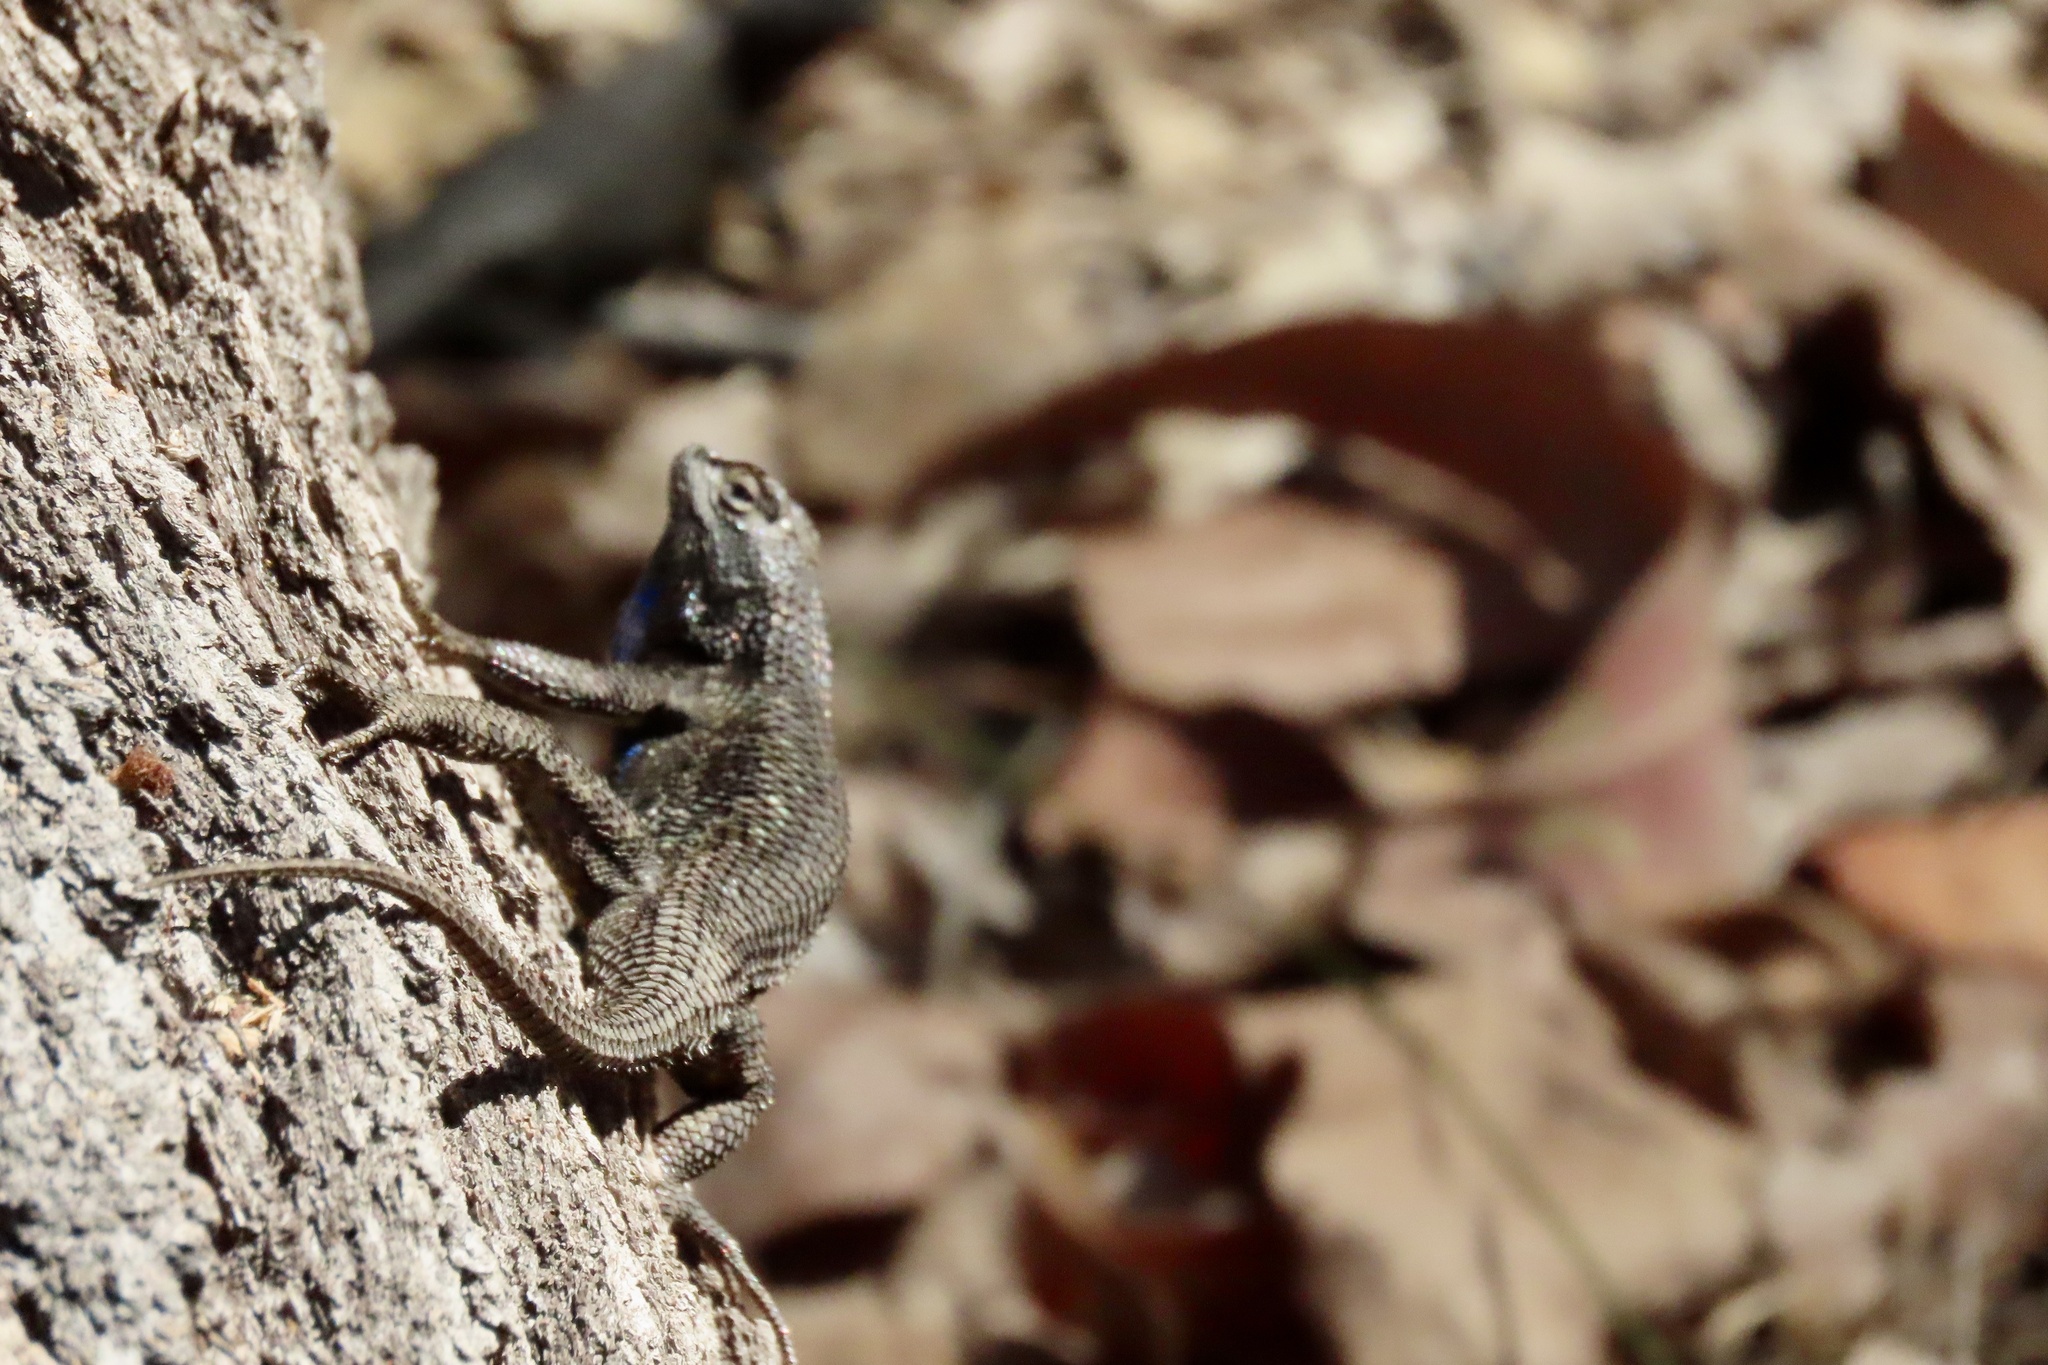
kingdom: Animalia
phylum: Chordata
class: Squamata
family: Phrynosomatidae
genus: Sceloporus
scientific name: Sceloporus occidentalis
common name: Western fence lizard
